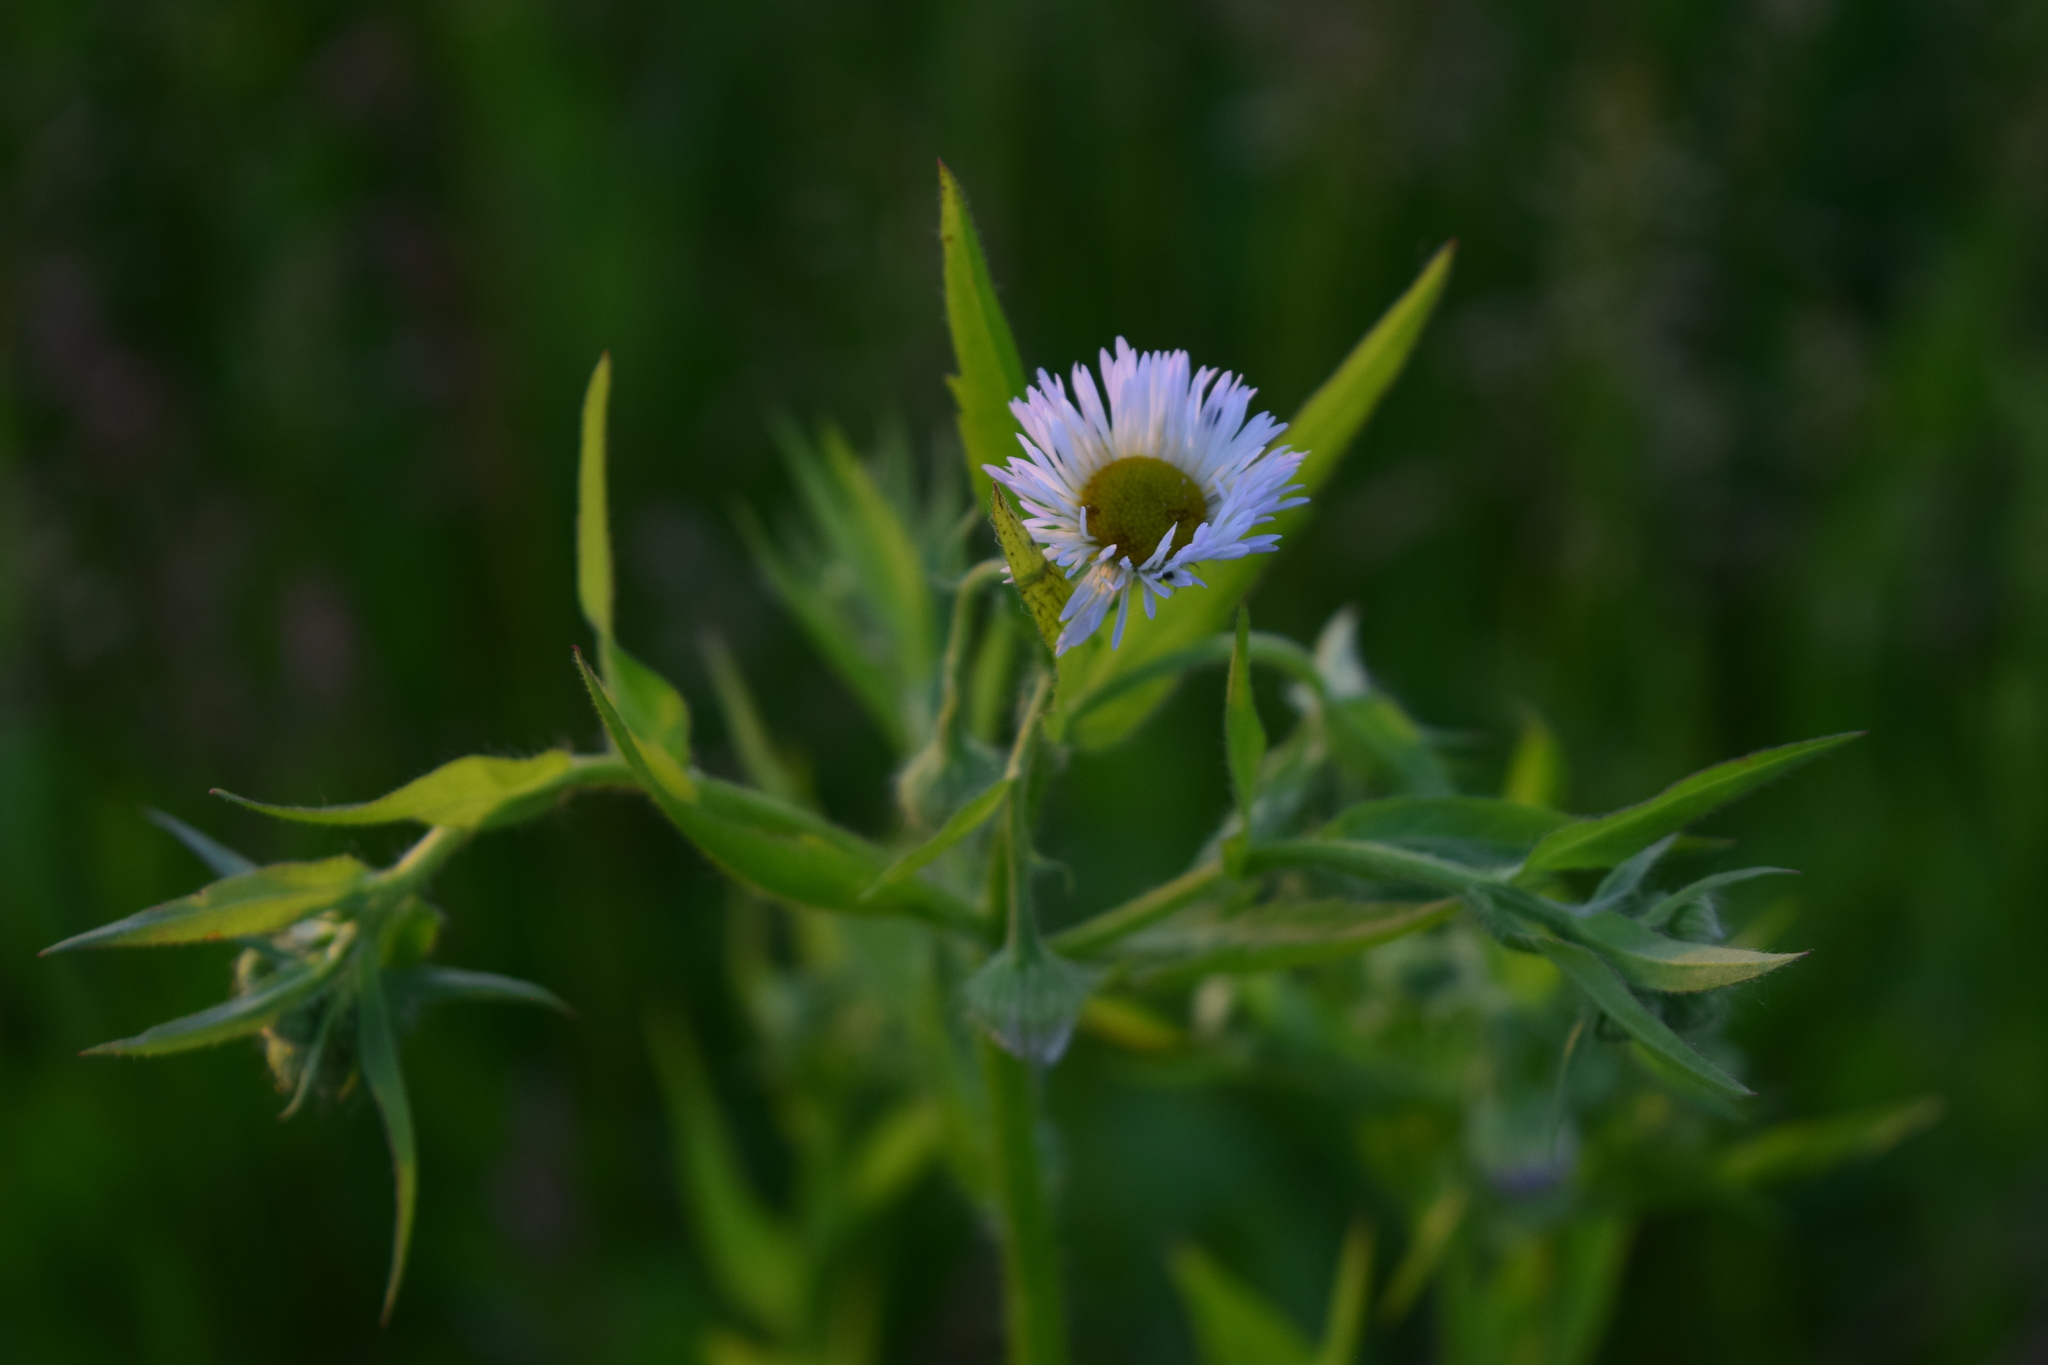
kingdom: Plantae
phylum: Tracheophyta
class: Magnoliopsida
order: Asterales
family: Asteraceae
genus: Erigeron
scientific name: Erigeron annuus
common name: Tall fleabane
